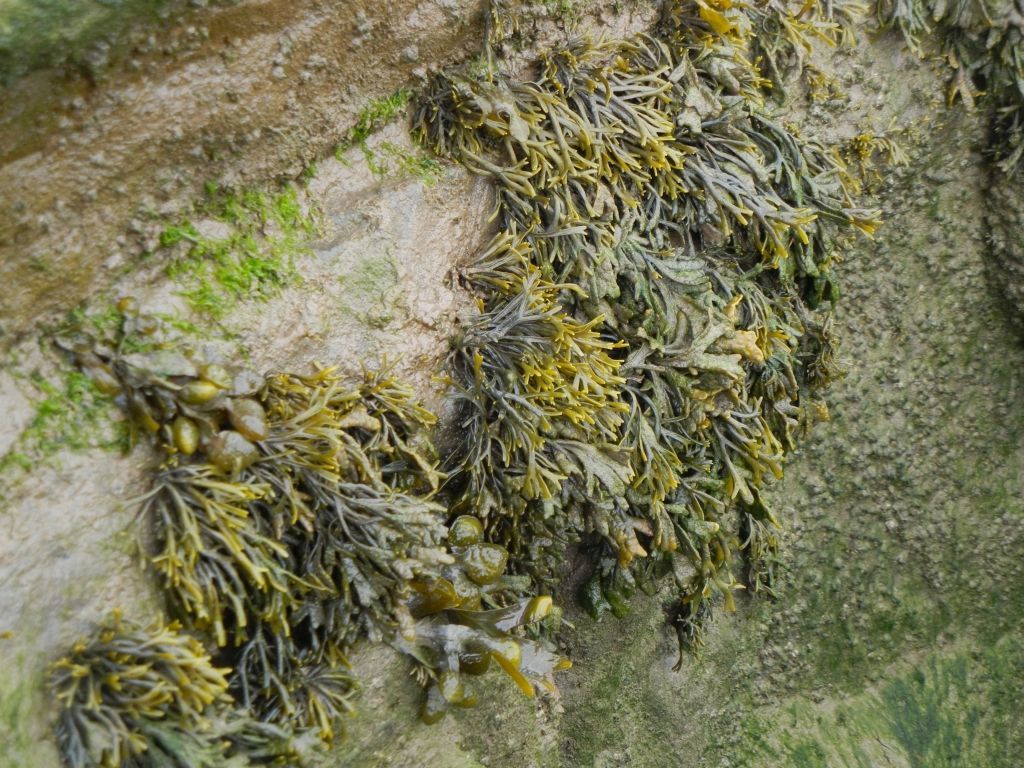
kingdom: Chromista
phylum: Ochrophyta
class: Phaeophyceae
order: Fucales
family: Fucaceae
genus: Pelvetia
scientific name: Pelvetia canaliculata
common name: Channelled wrack
